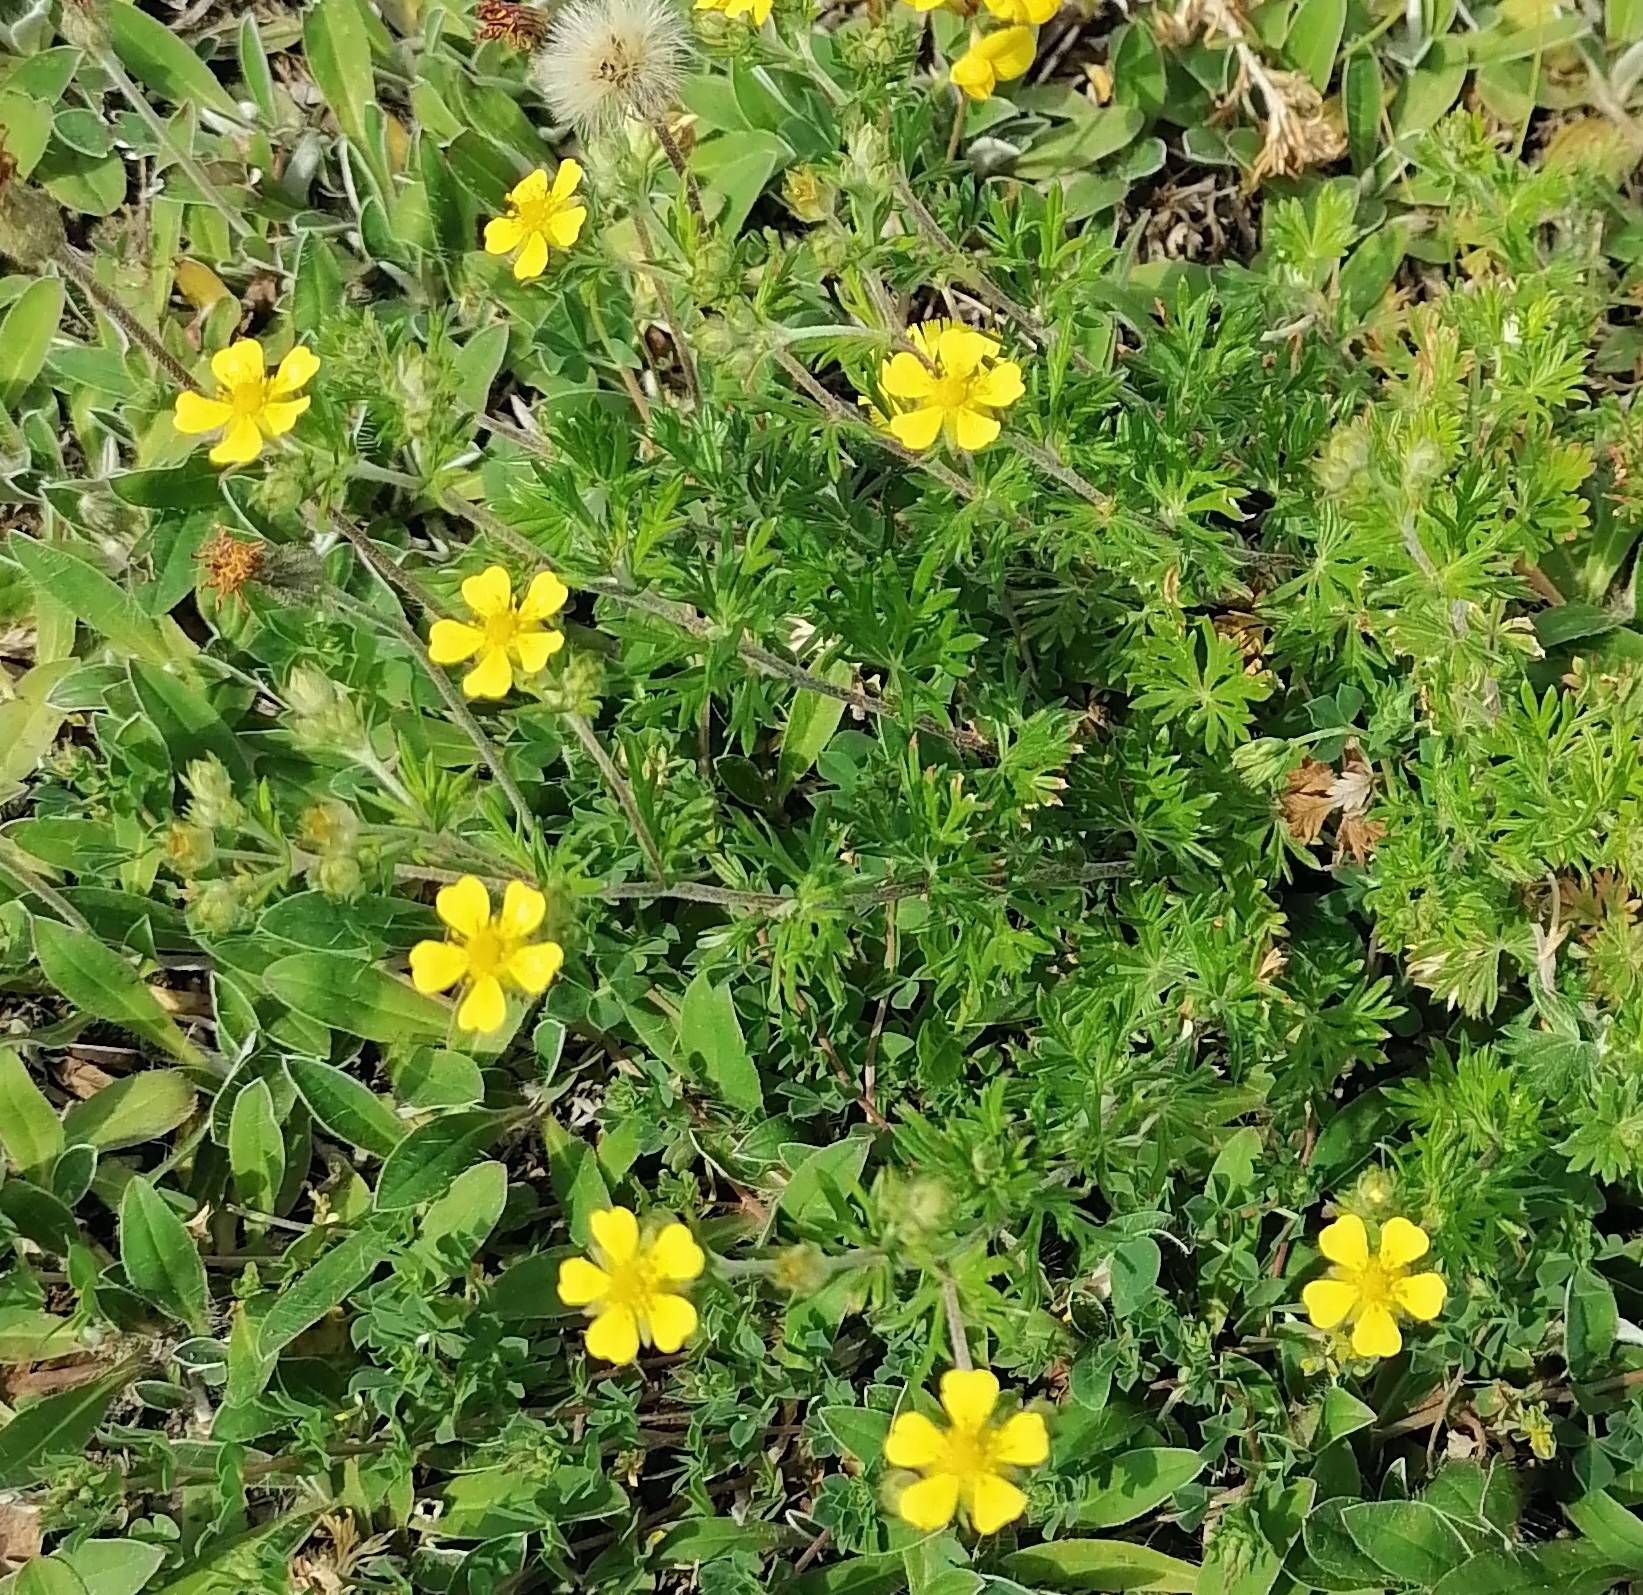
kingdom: Plantae
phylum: Tracheophyta
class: Magnoliopsida
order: Rosales
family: Rosaceae
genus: Potentilla
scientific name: Potentilla argentea
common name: Hoary cinquefoil
